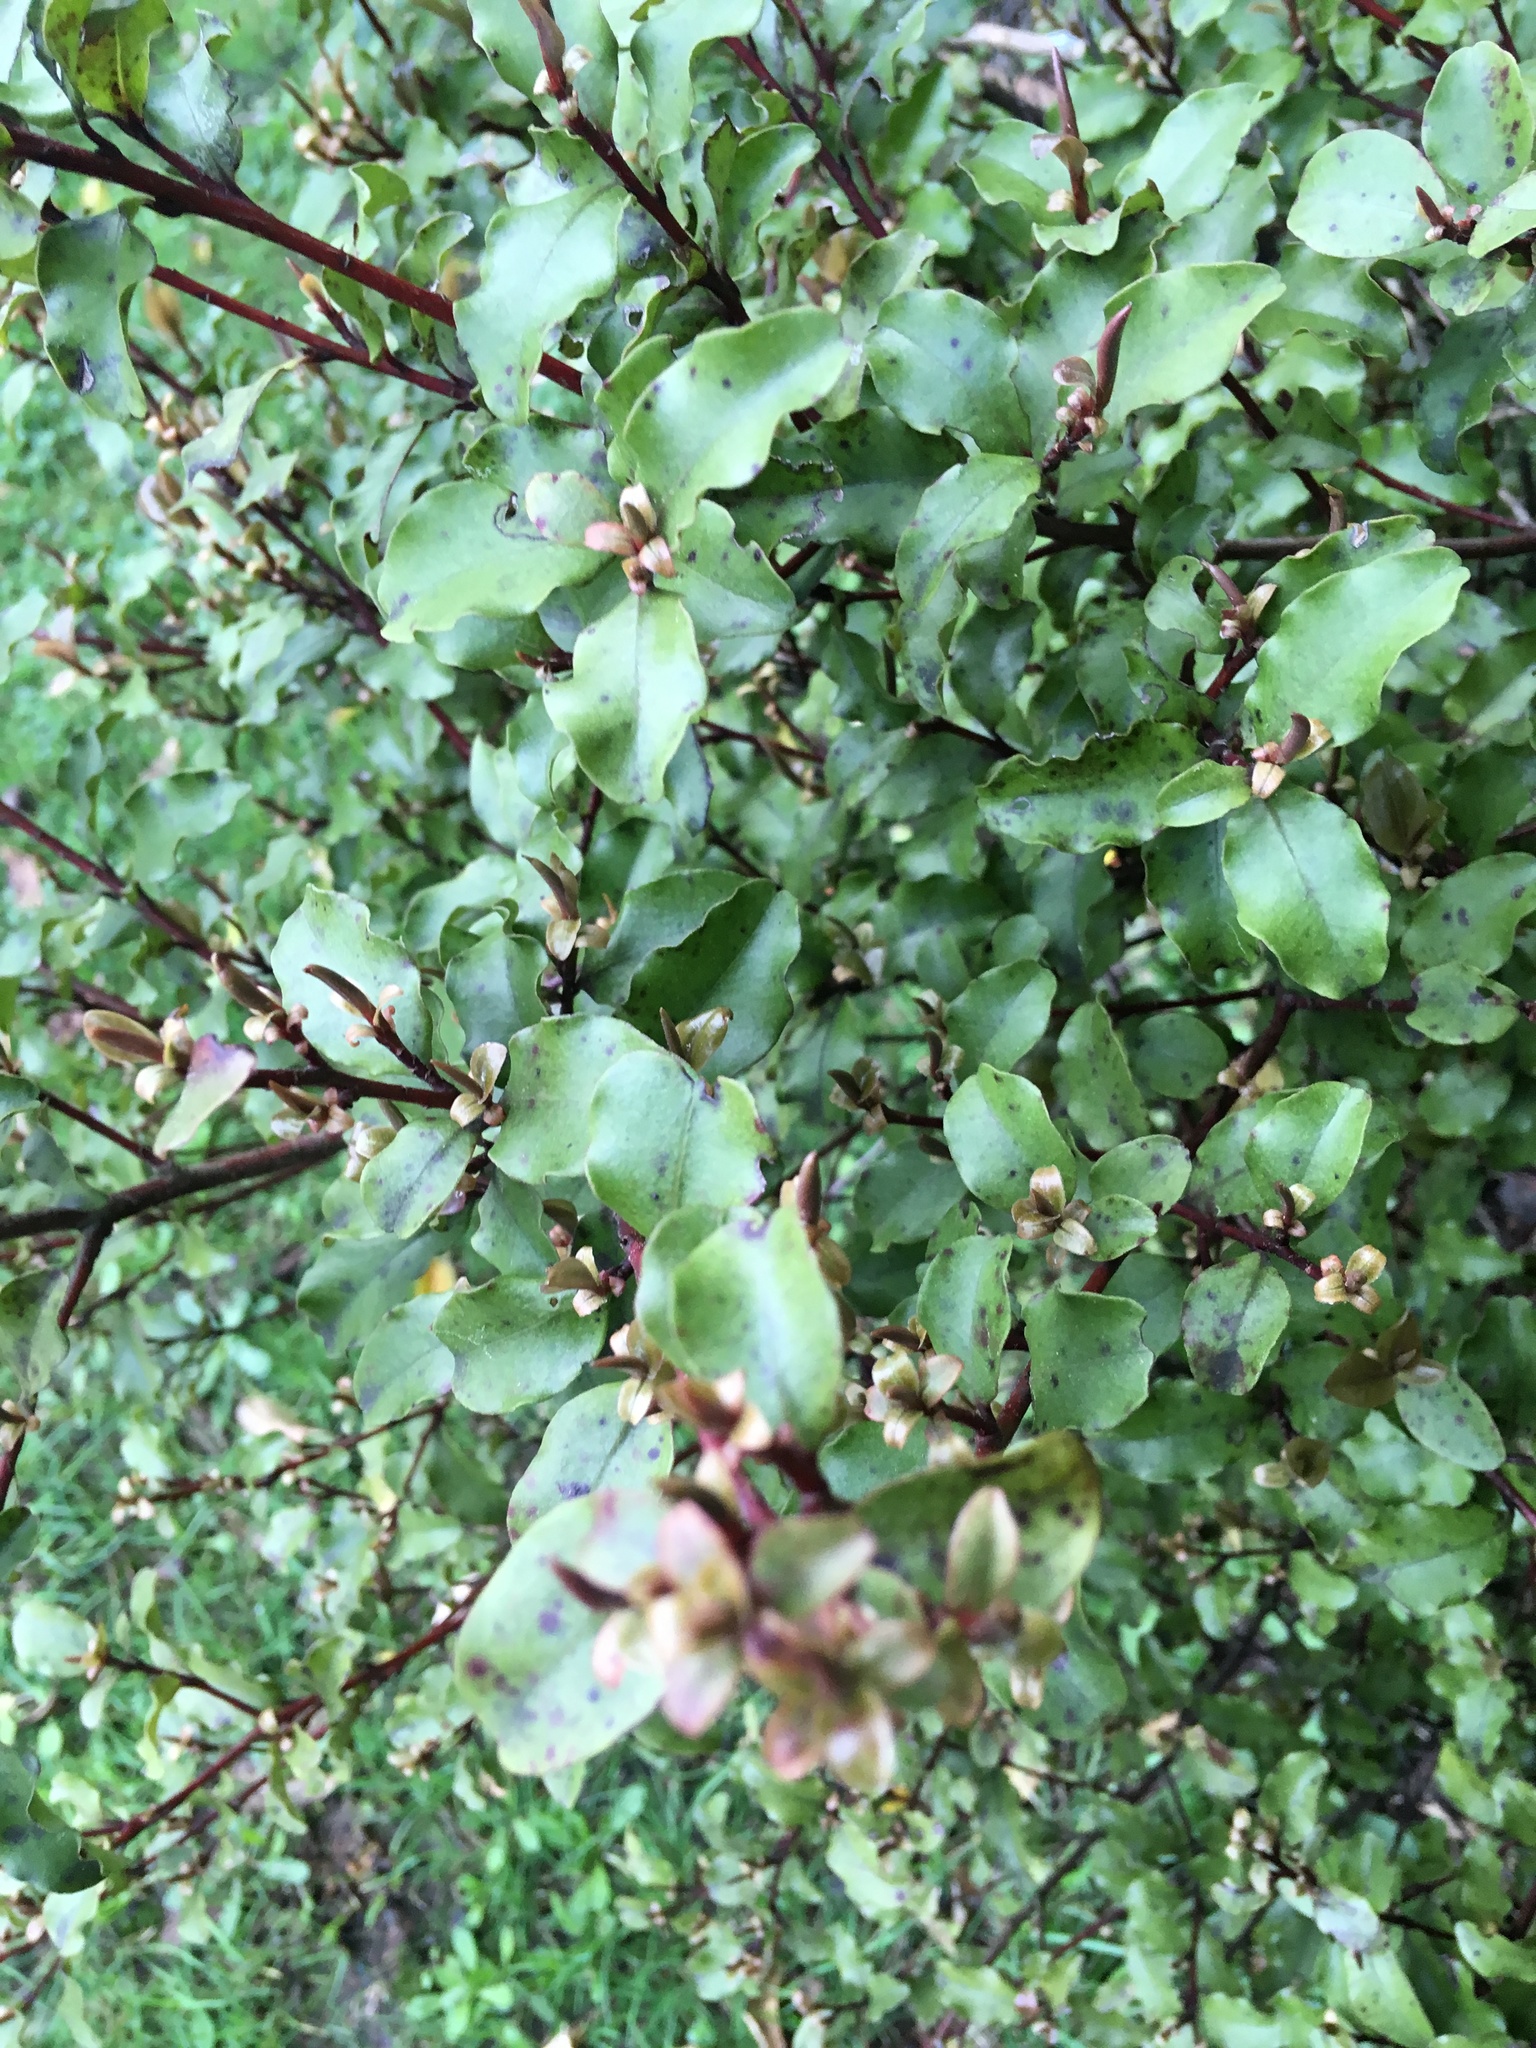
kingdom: Plantae
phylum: Tracheophyta
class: Magnoliopsida
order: Ericales
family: Primulaceae
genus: Myrsine
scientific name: Myrsine australis
